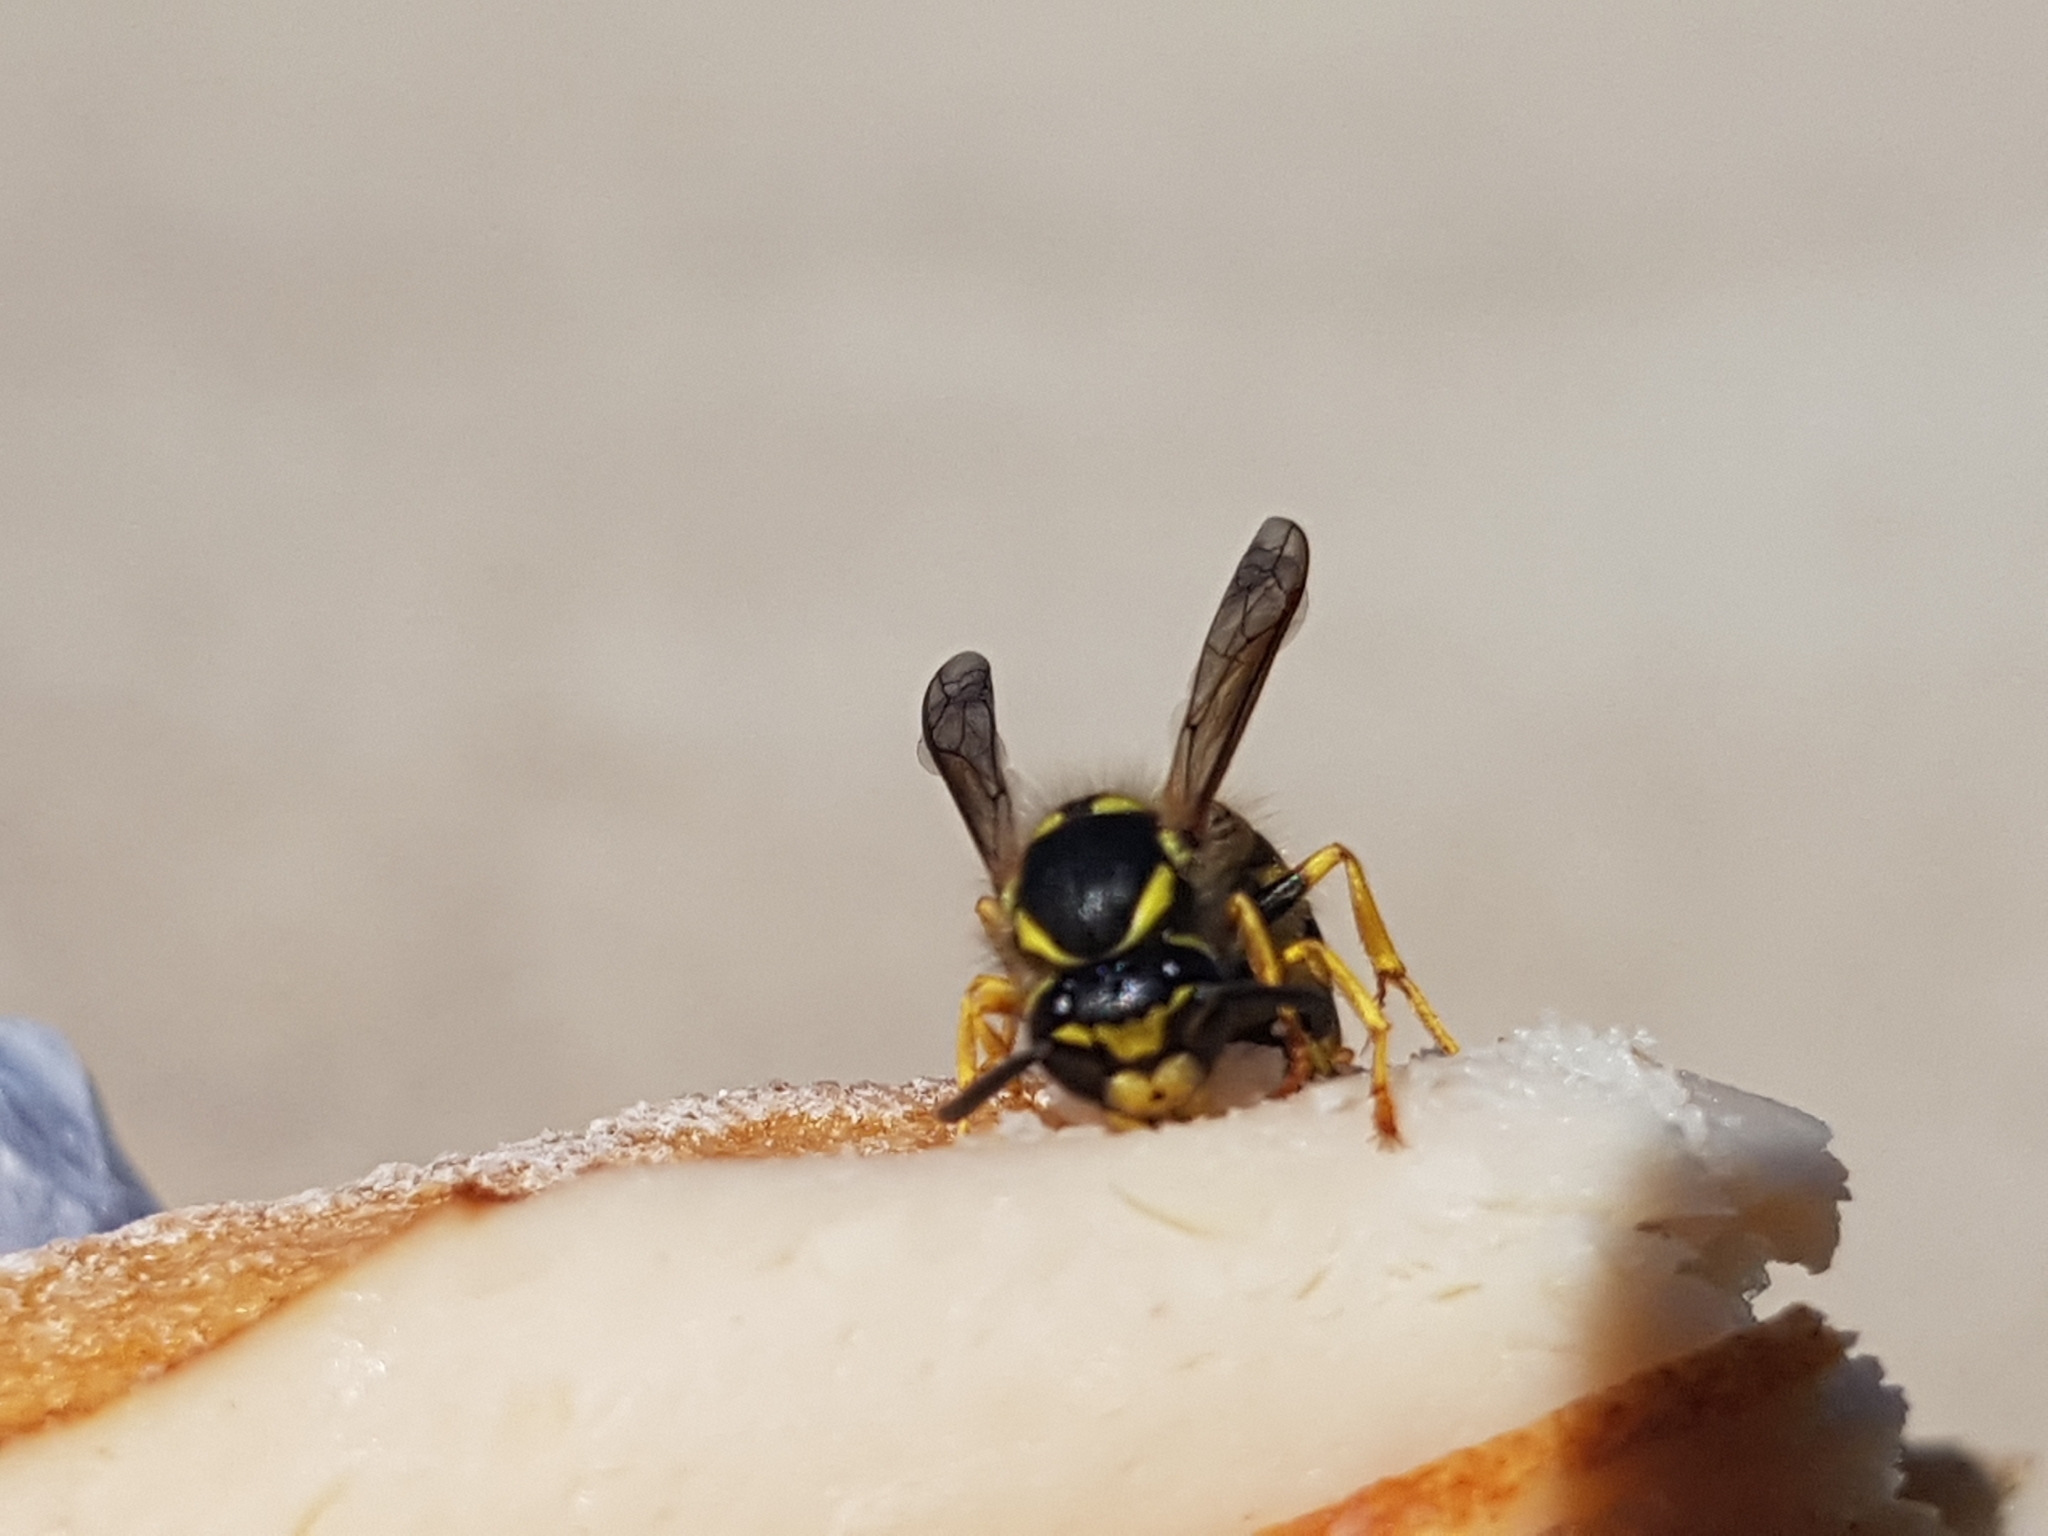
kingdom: Animalia
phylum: Arthropoda
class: Insecta
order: Hymenoptera
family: Vespidae
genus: Vespula
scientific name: Vespula germanica
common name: German wasp
